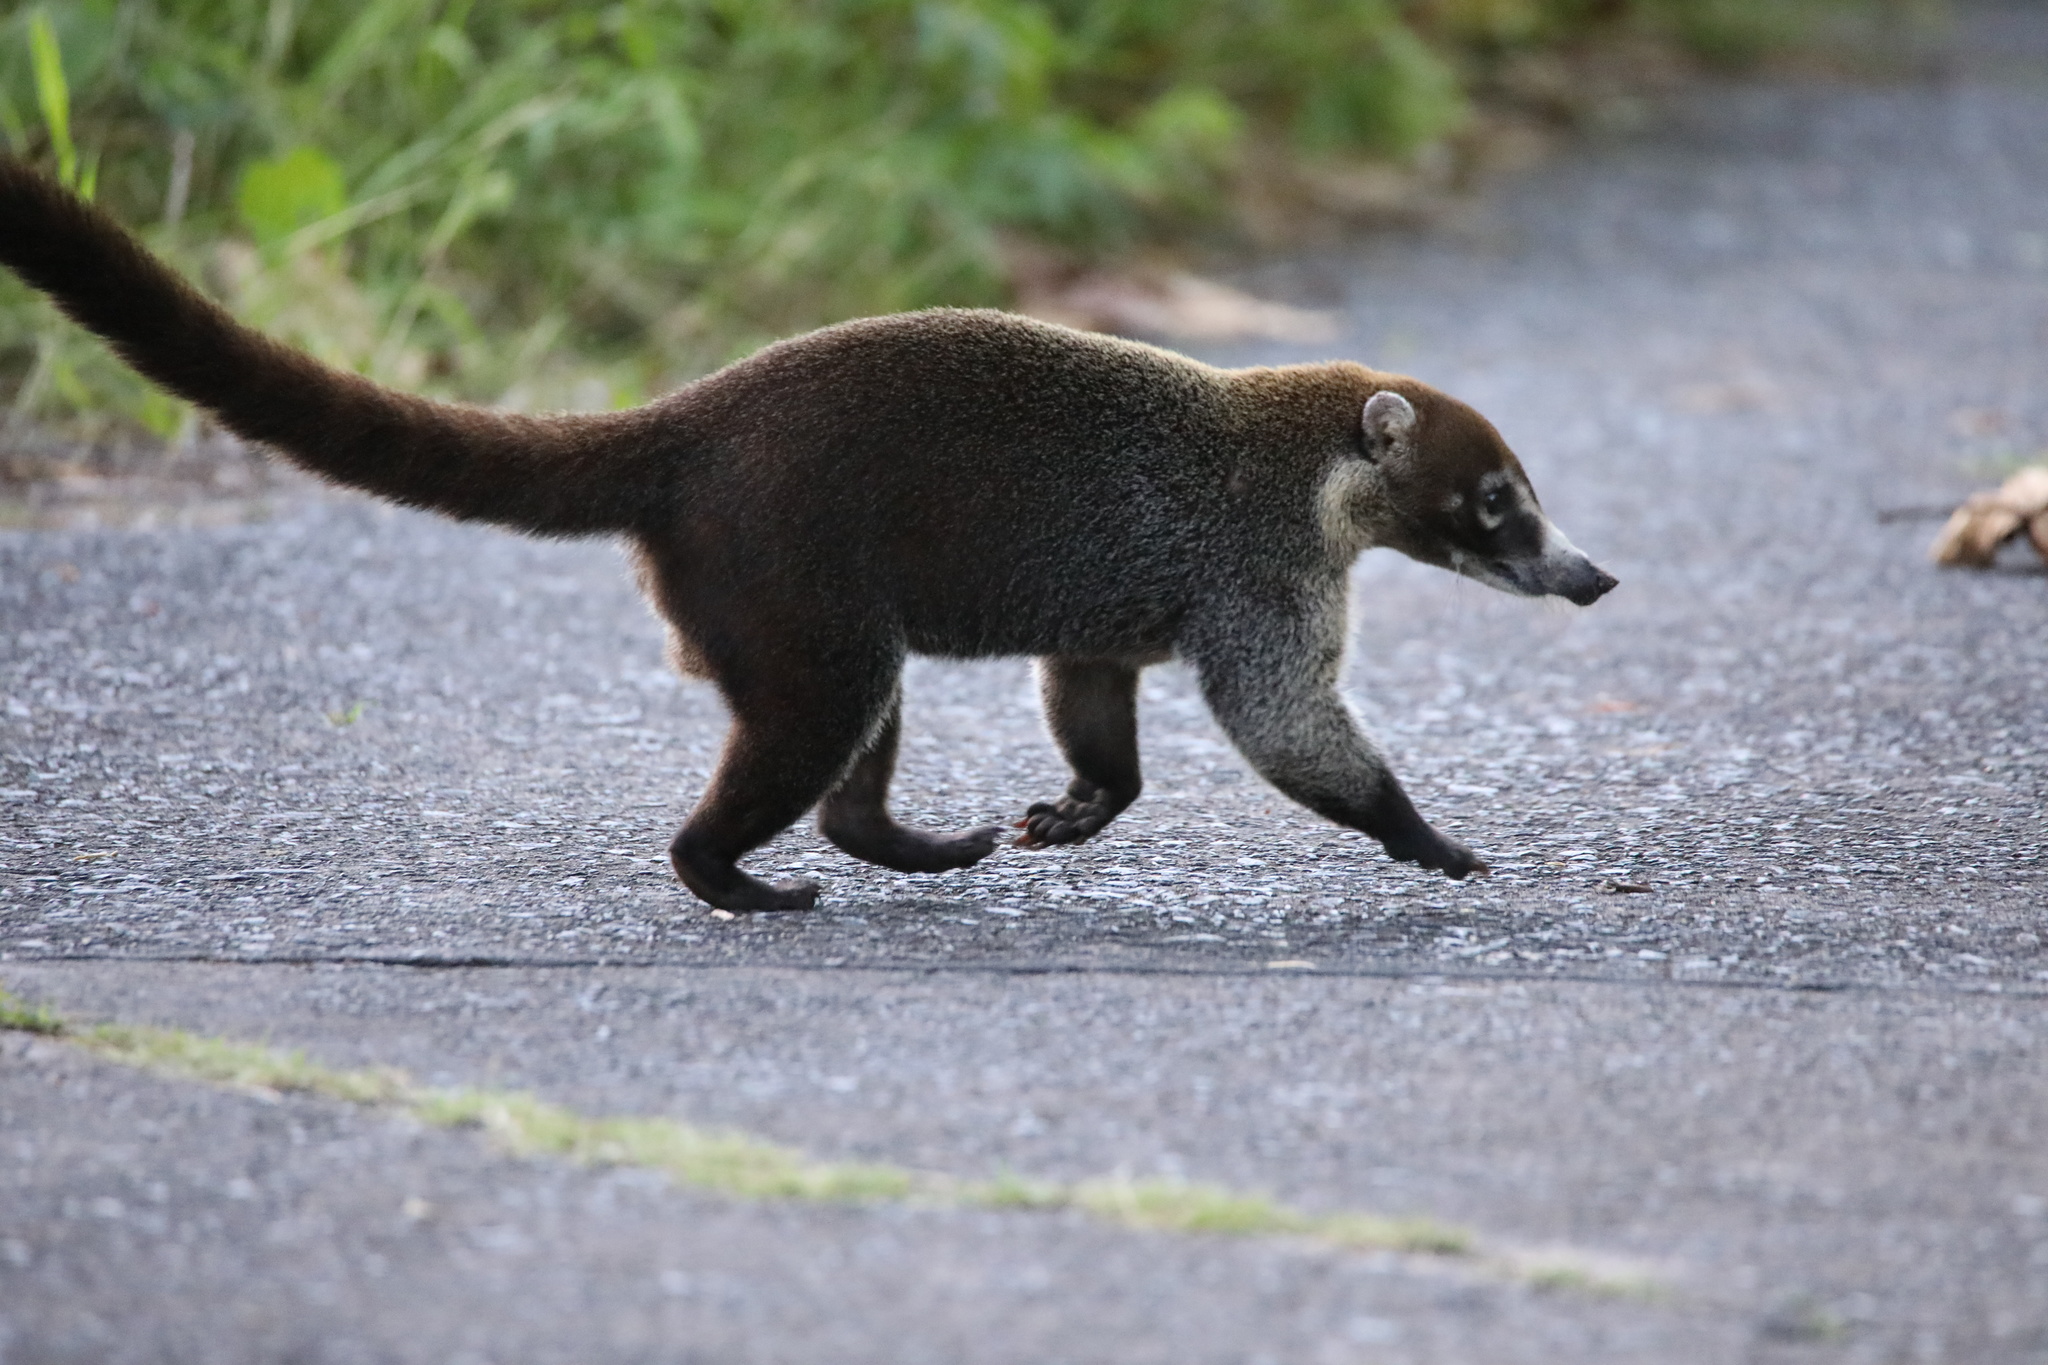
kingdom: Animalia
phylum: Chordata
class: Mammalia
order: Carnivora
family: Procyonidae
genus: Nasua
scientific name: Nasua narica
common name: White-nosed coati
